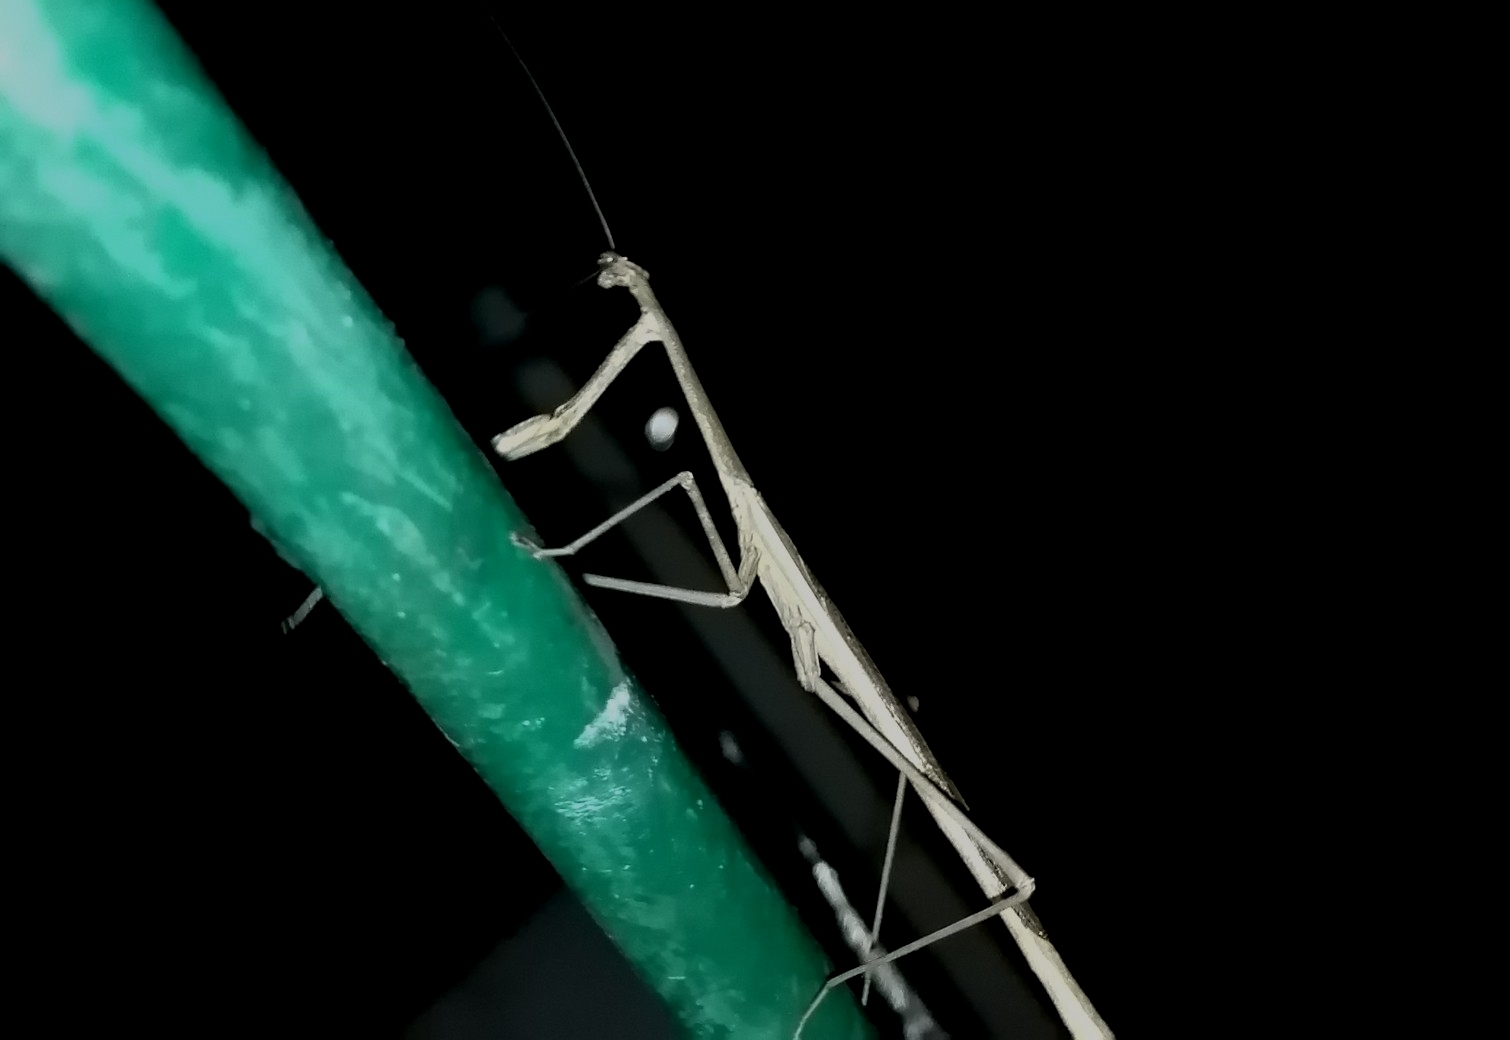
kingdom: Animalia
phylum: Arthropoda
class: Insecta
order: Mantodea
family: Mantidae
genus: Phasmomantis
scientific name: Phasmomantis sumichrasti
